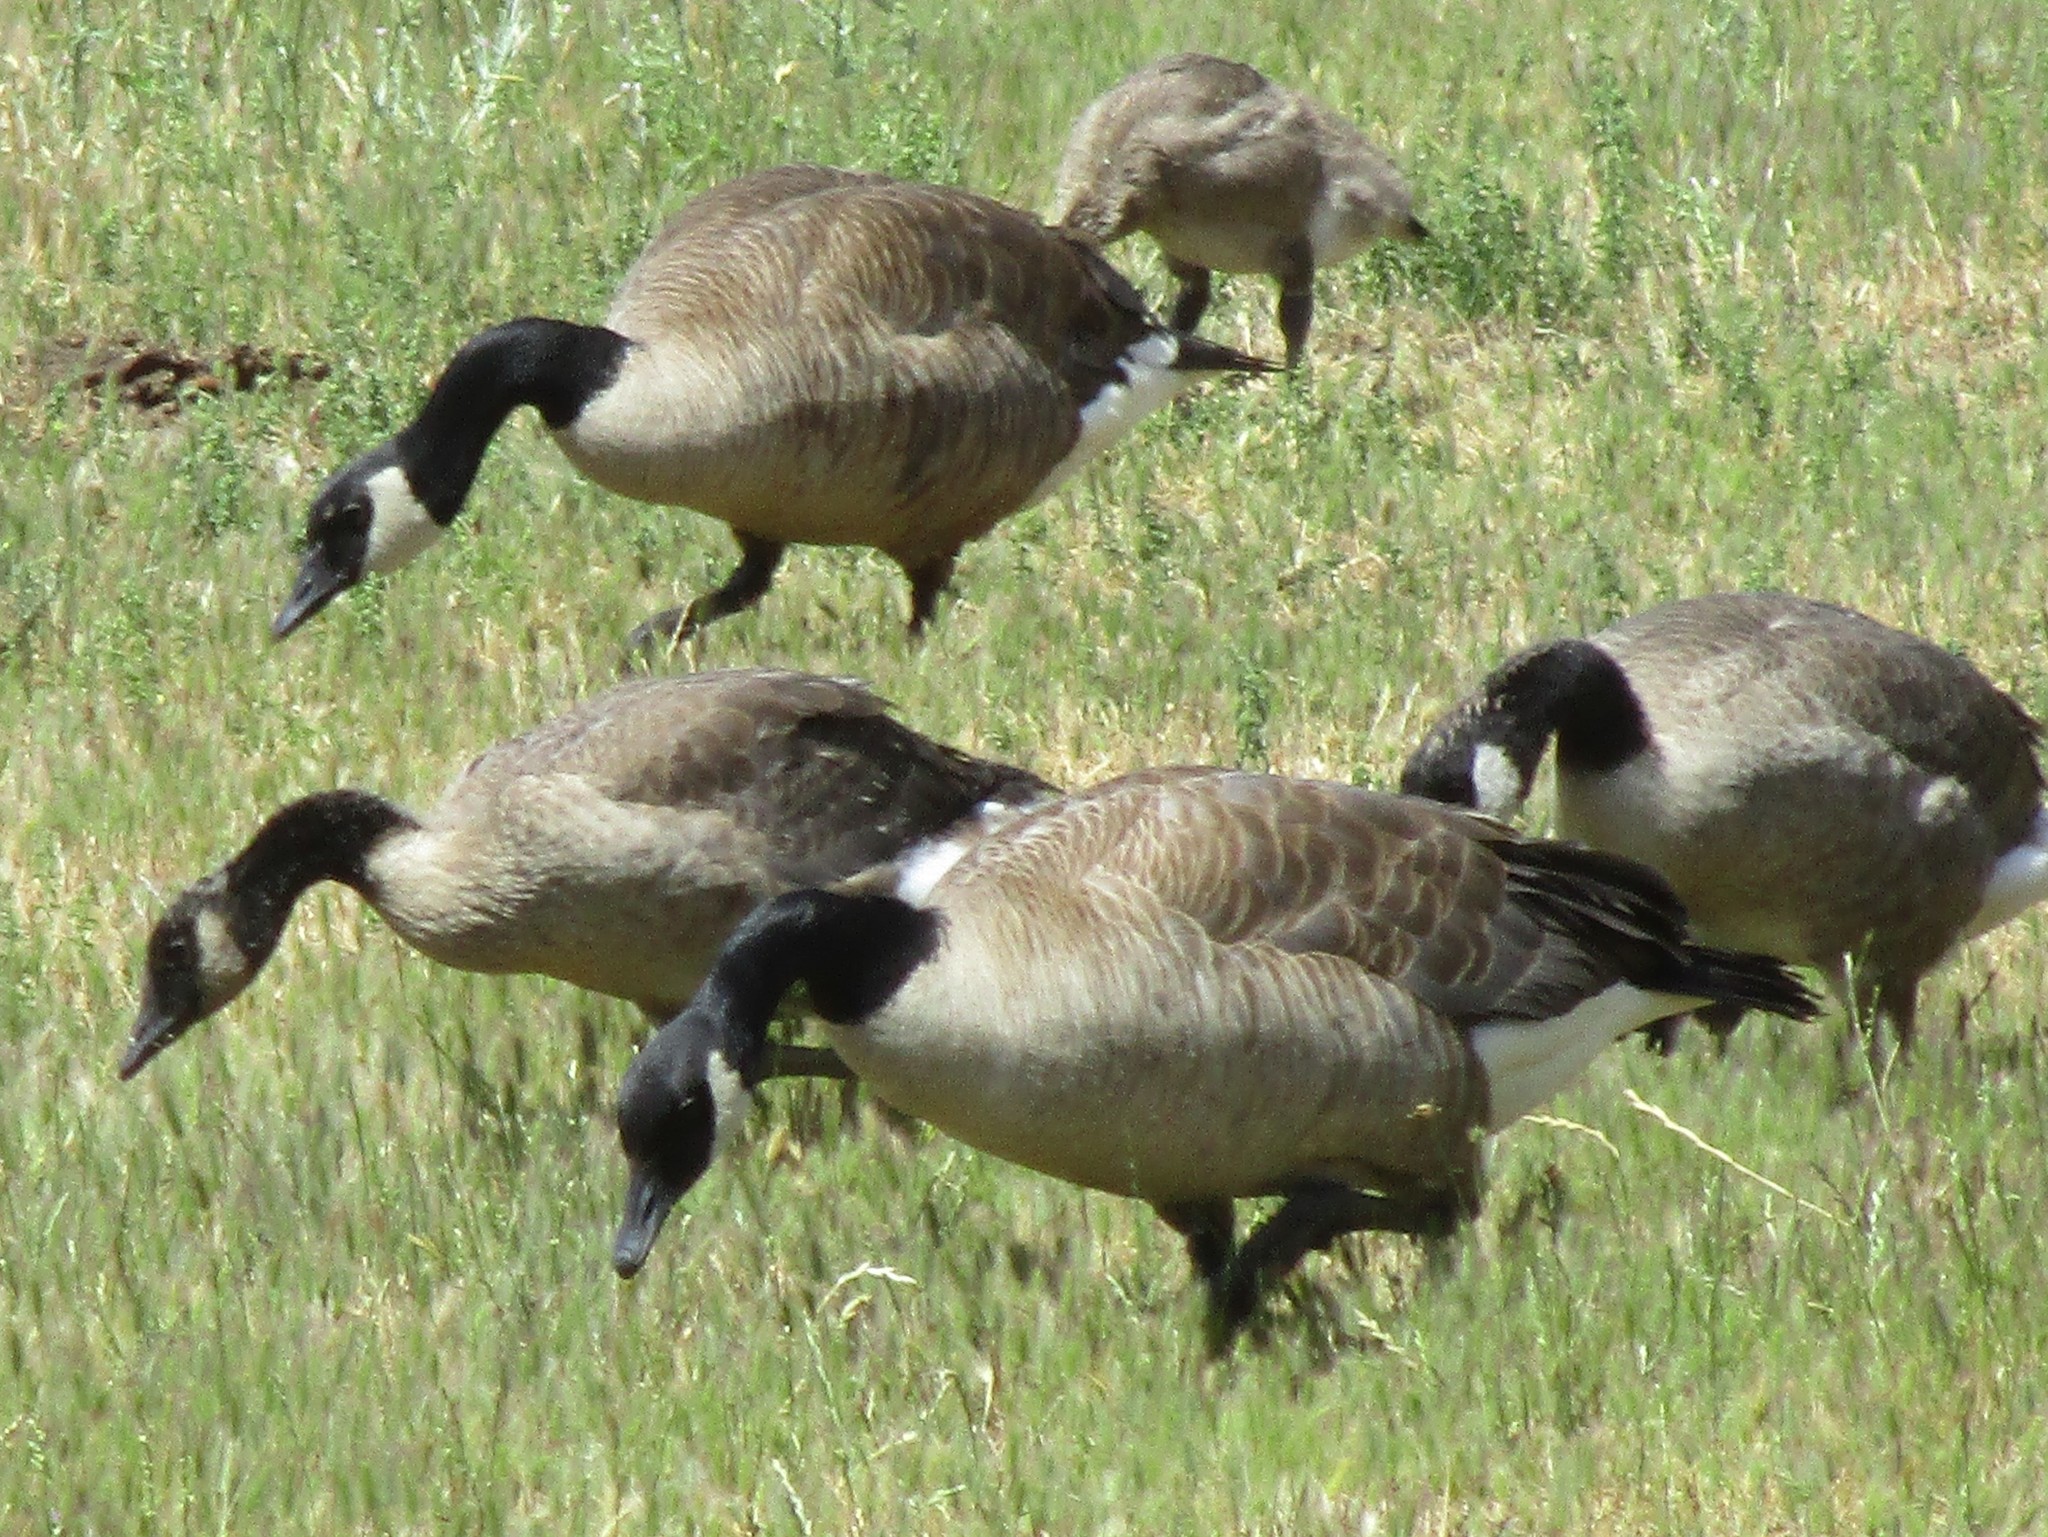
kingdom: Animalia
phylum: Chordata
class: Aves
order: Anseriformes
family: Anatidae
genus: Branta
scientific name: Branta canadensis
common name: Canada goose
